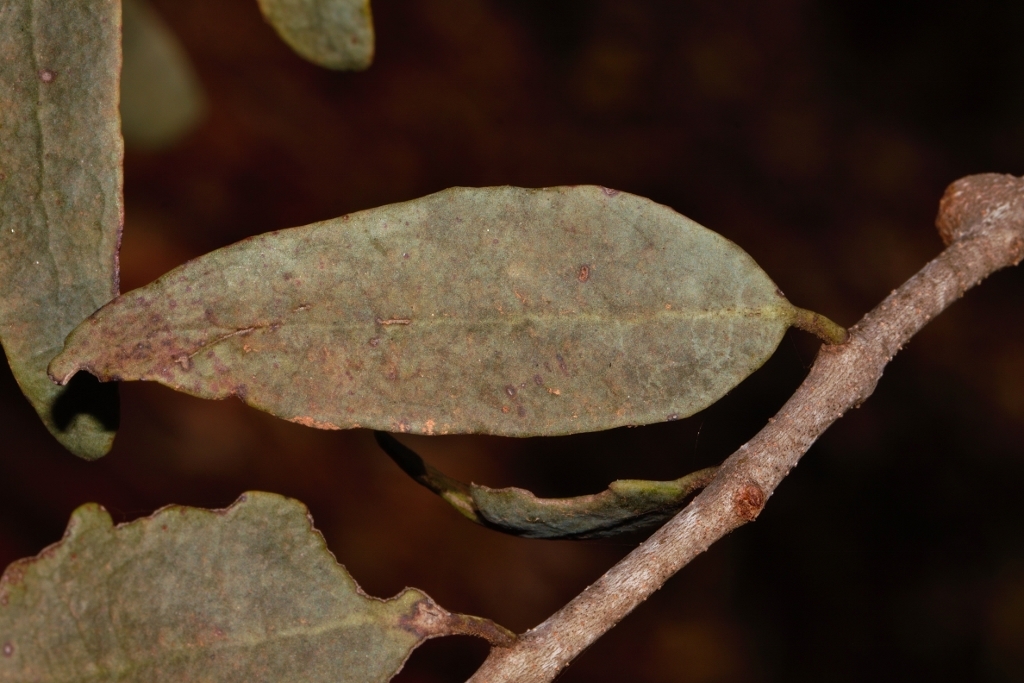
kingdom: Plantae
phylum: Tracheophyta
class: Magnoliopsida
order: Santalales
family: Loranthaceae
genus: Tapinanthus
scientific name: Tapinanthus forbesii
